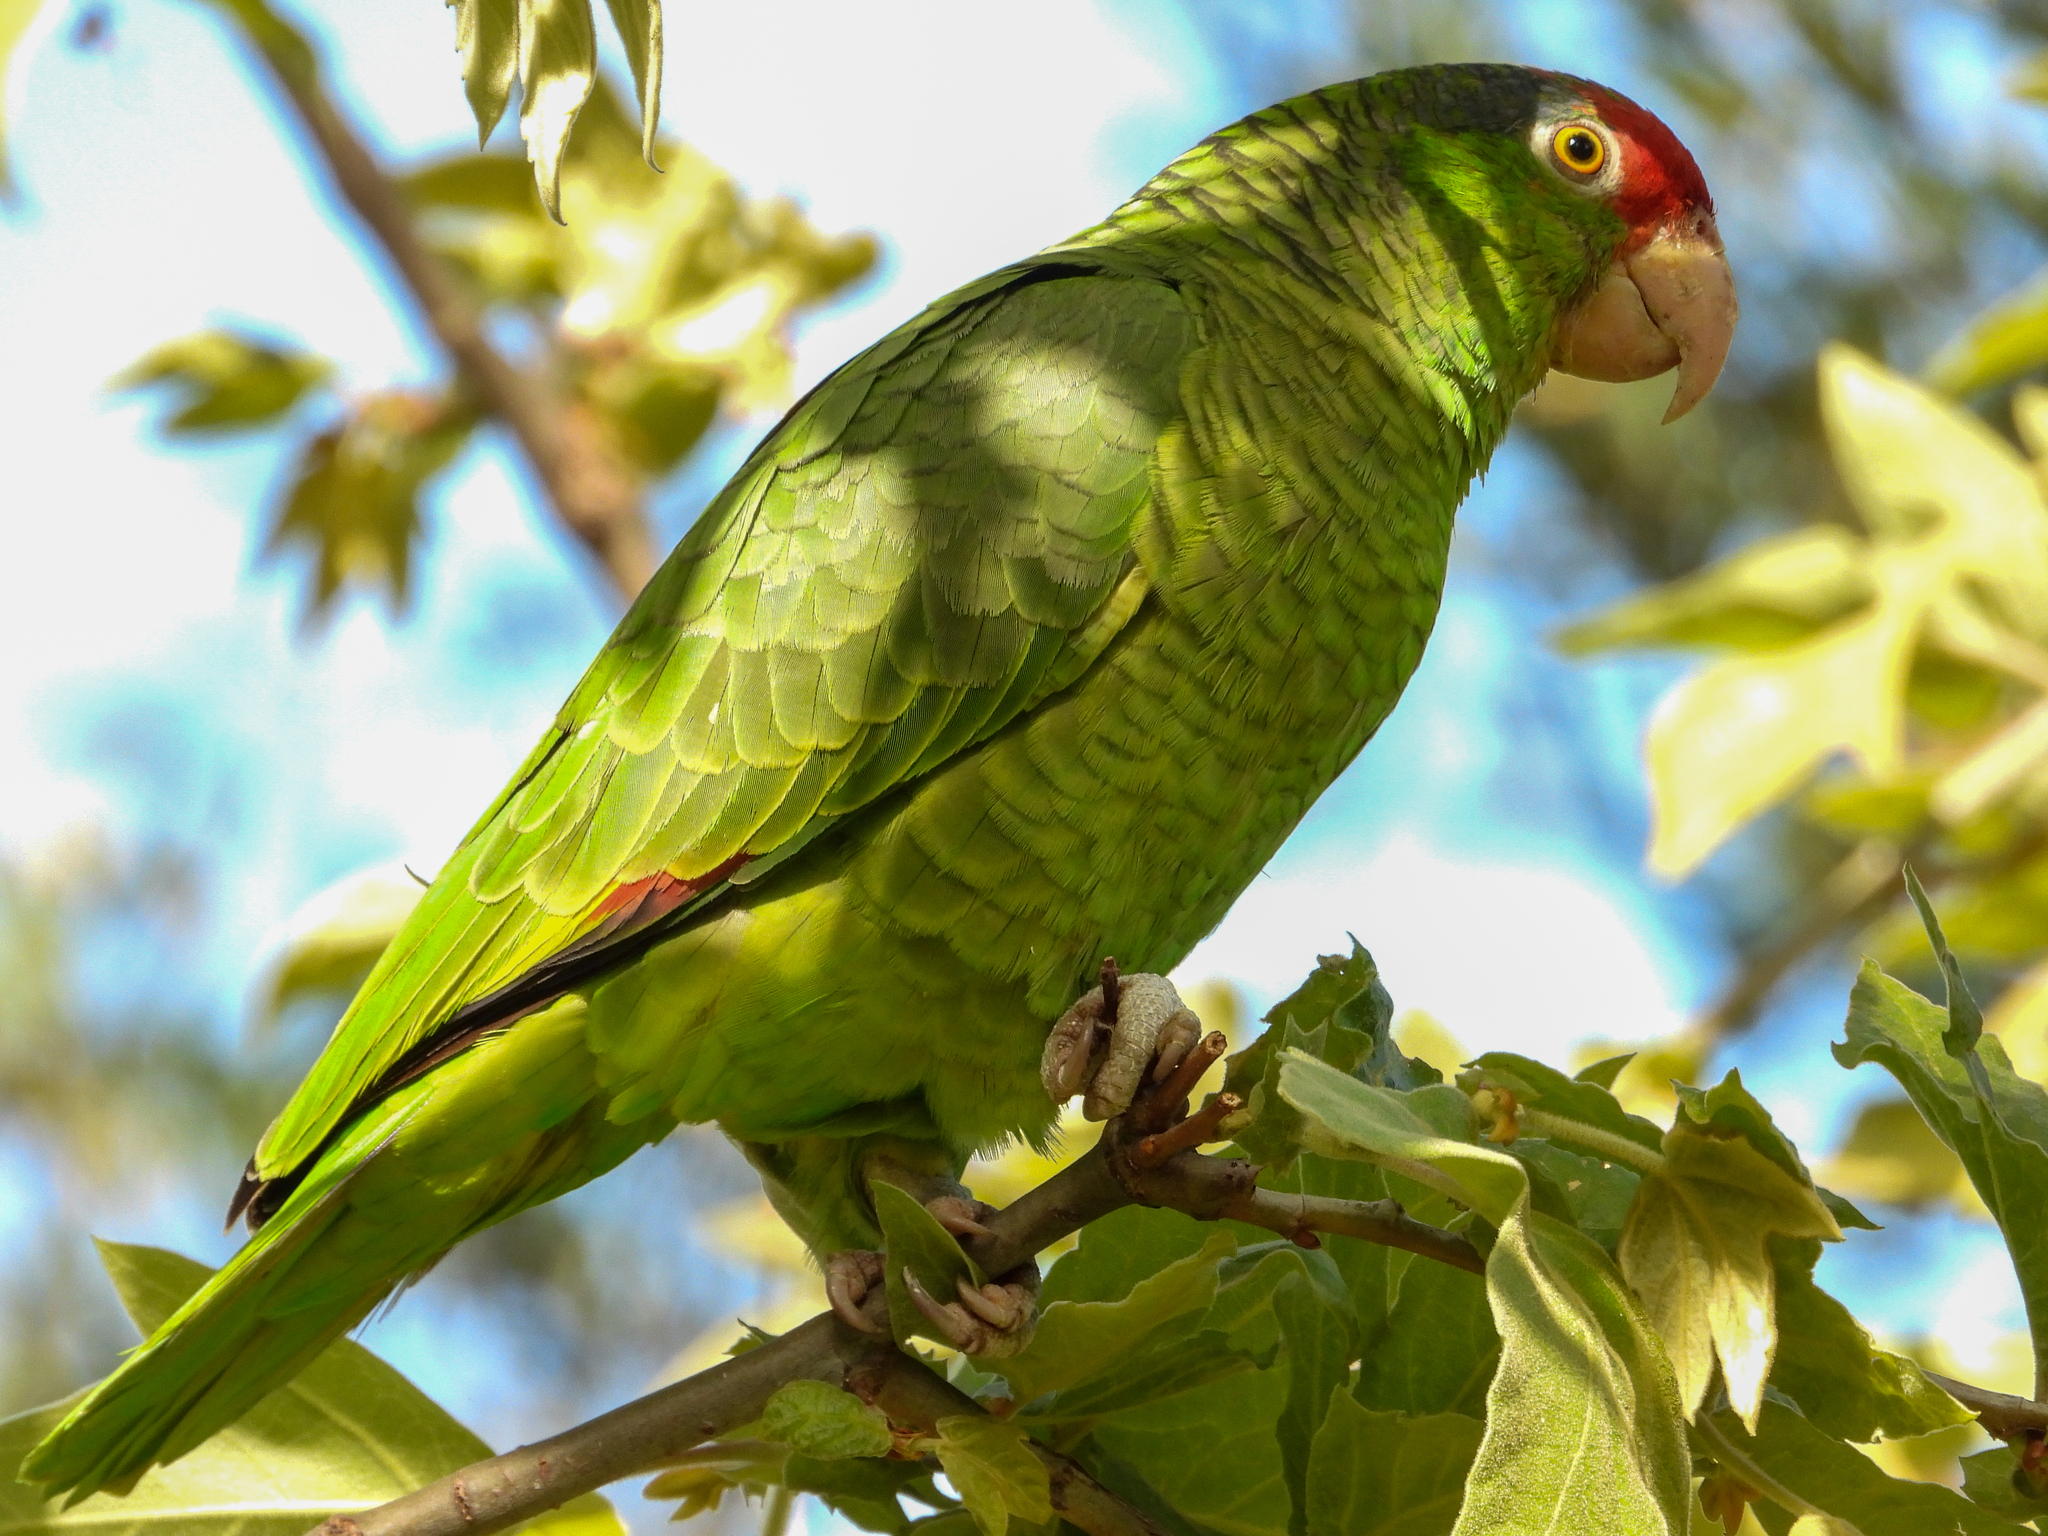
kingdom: Animalia
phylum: Chordata
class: Aves
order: Psittaciformes
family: Psittacidae
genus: Amazona
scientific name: Amazona viridigenalis
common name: Red-crowned amazon
